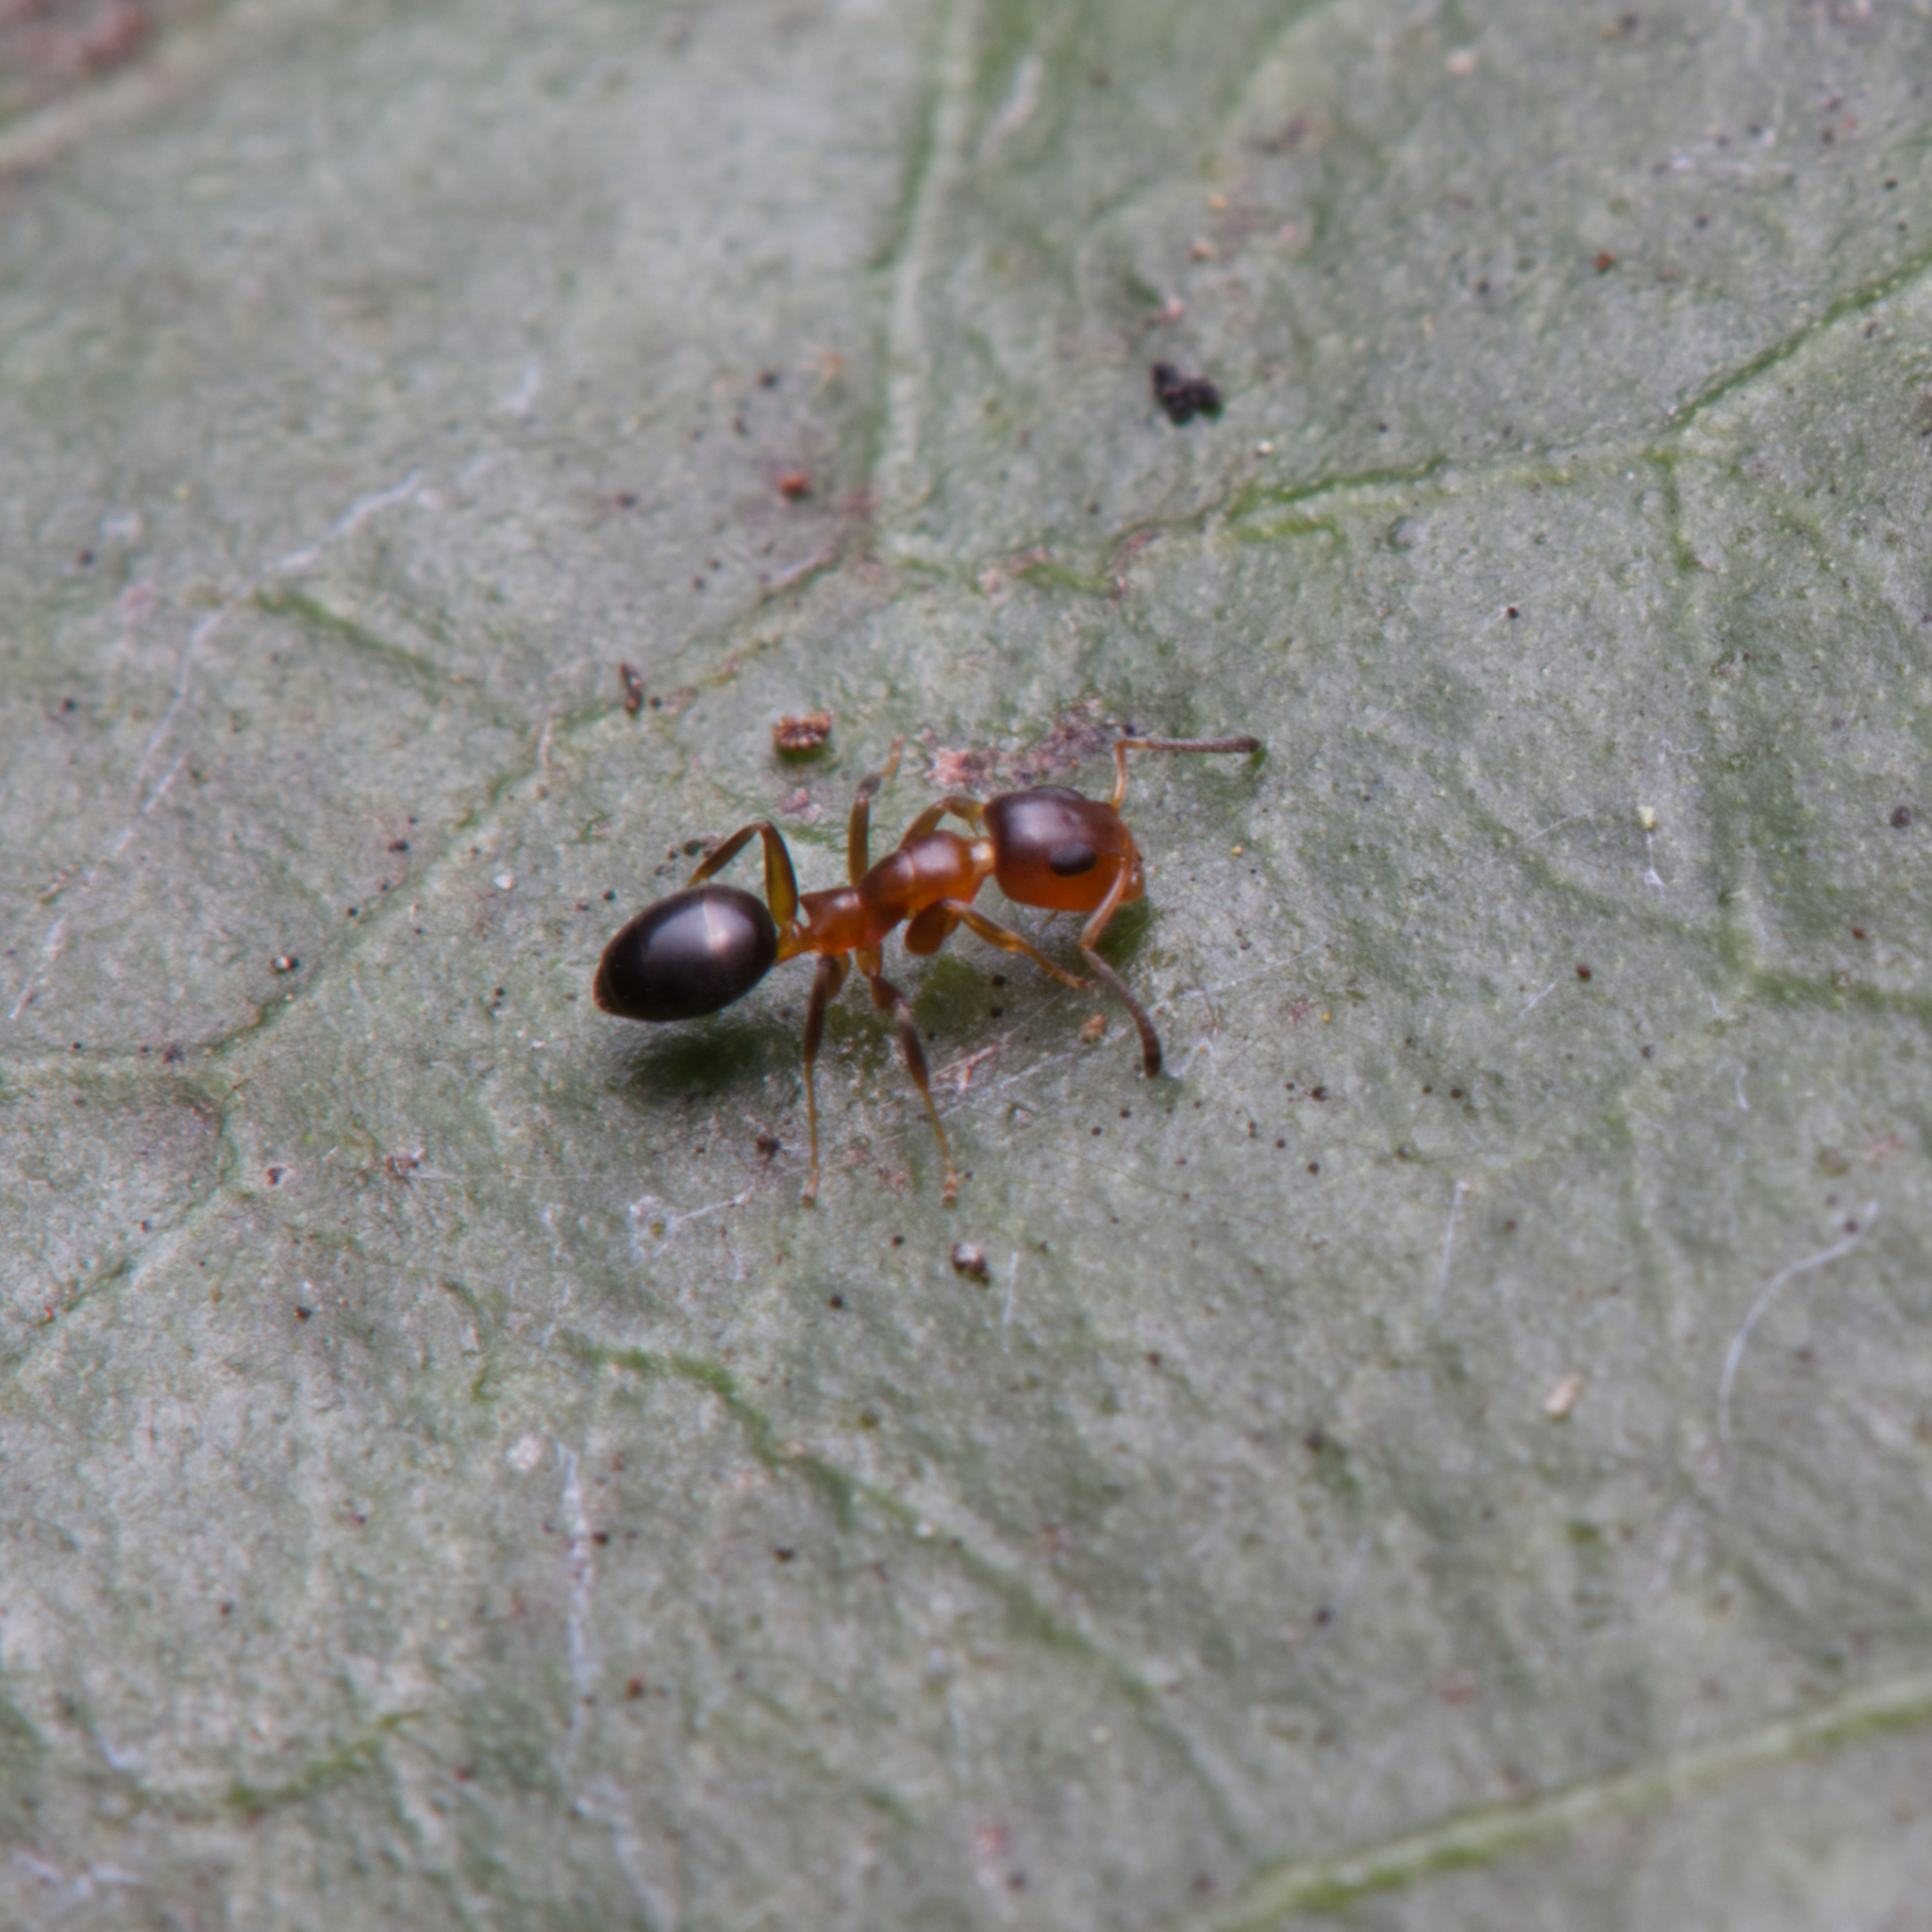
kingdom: Animalia
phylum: Arthropoda
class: Insecta
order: Hymenoptera
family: Formicidae
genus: Turneria
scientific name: Turneria bidentata
